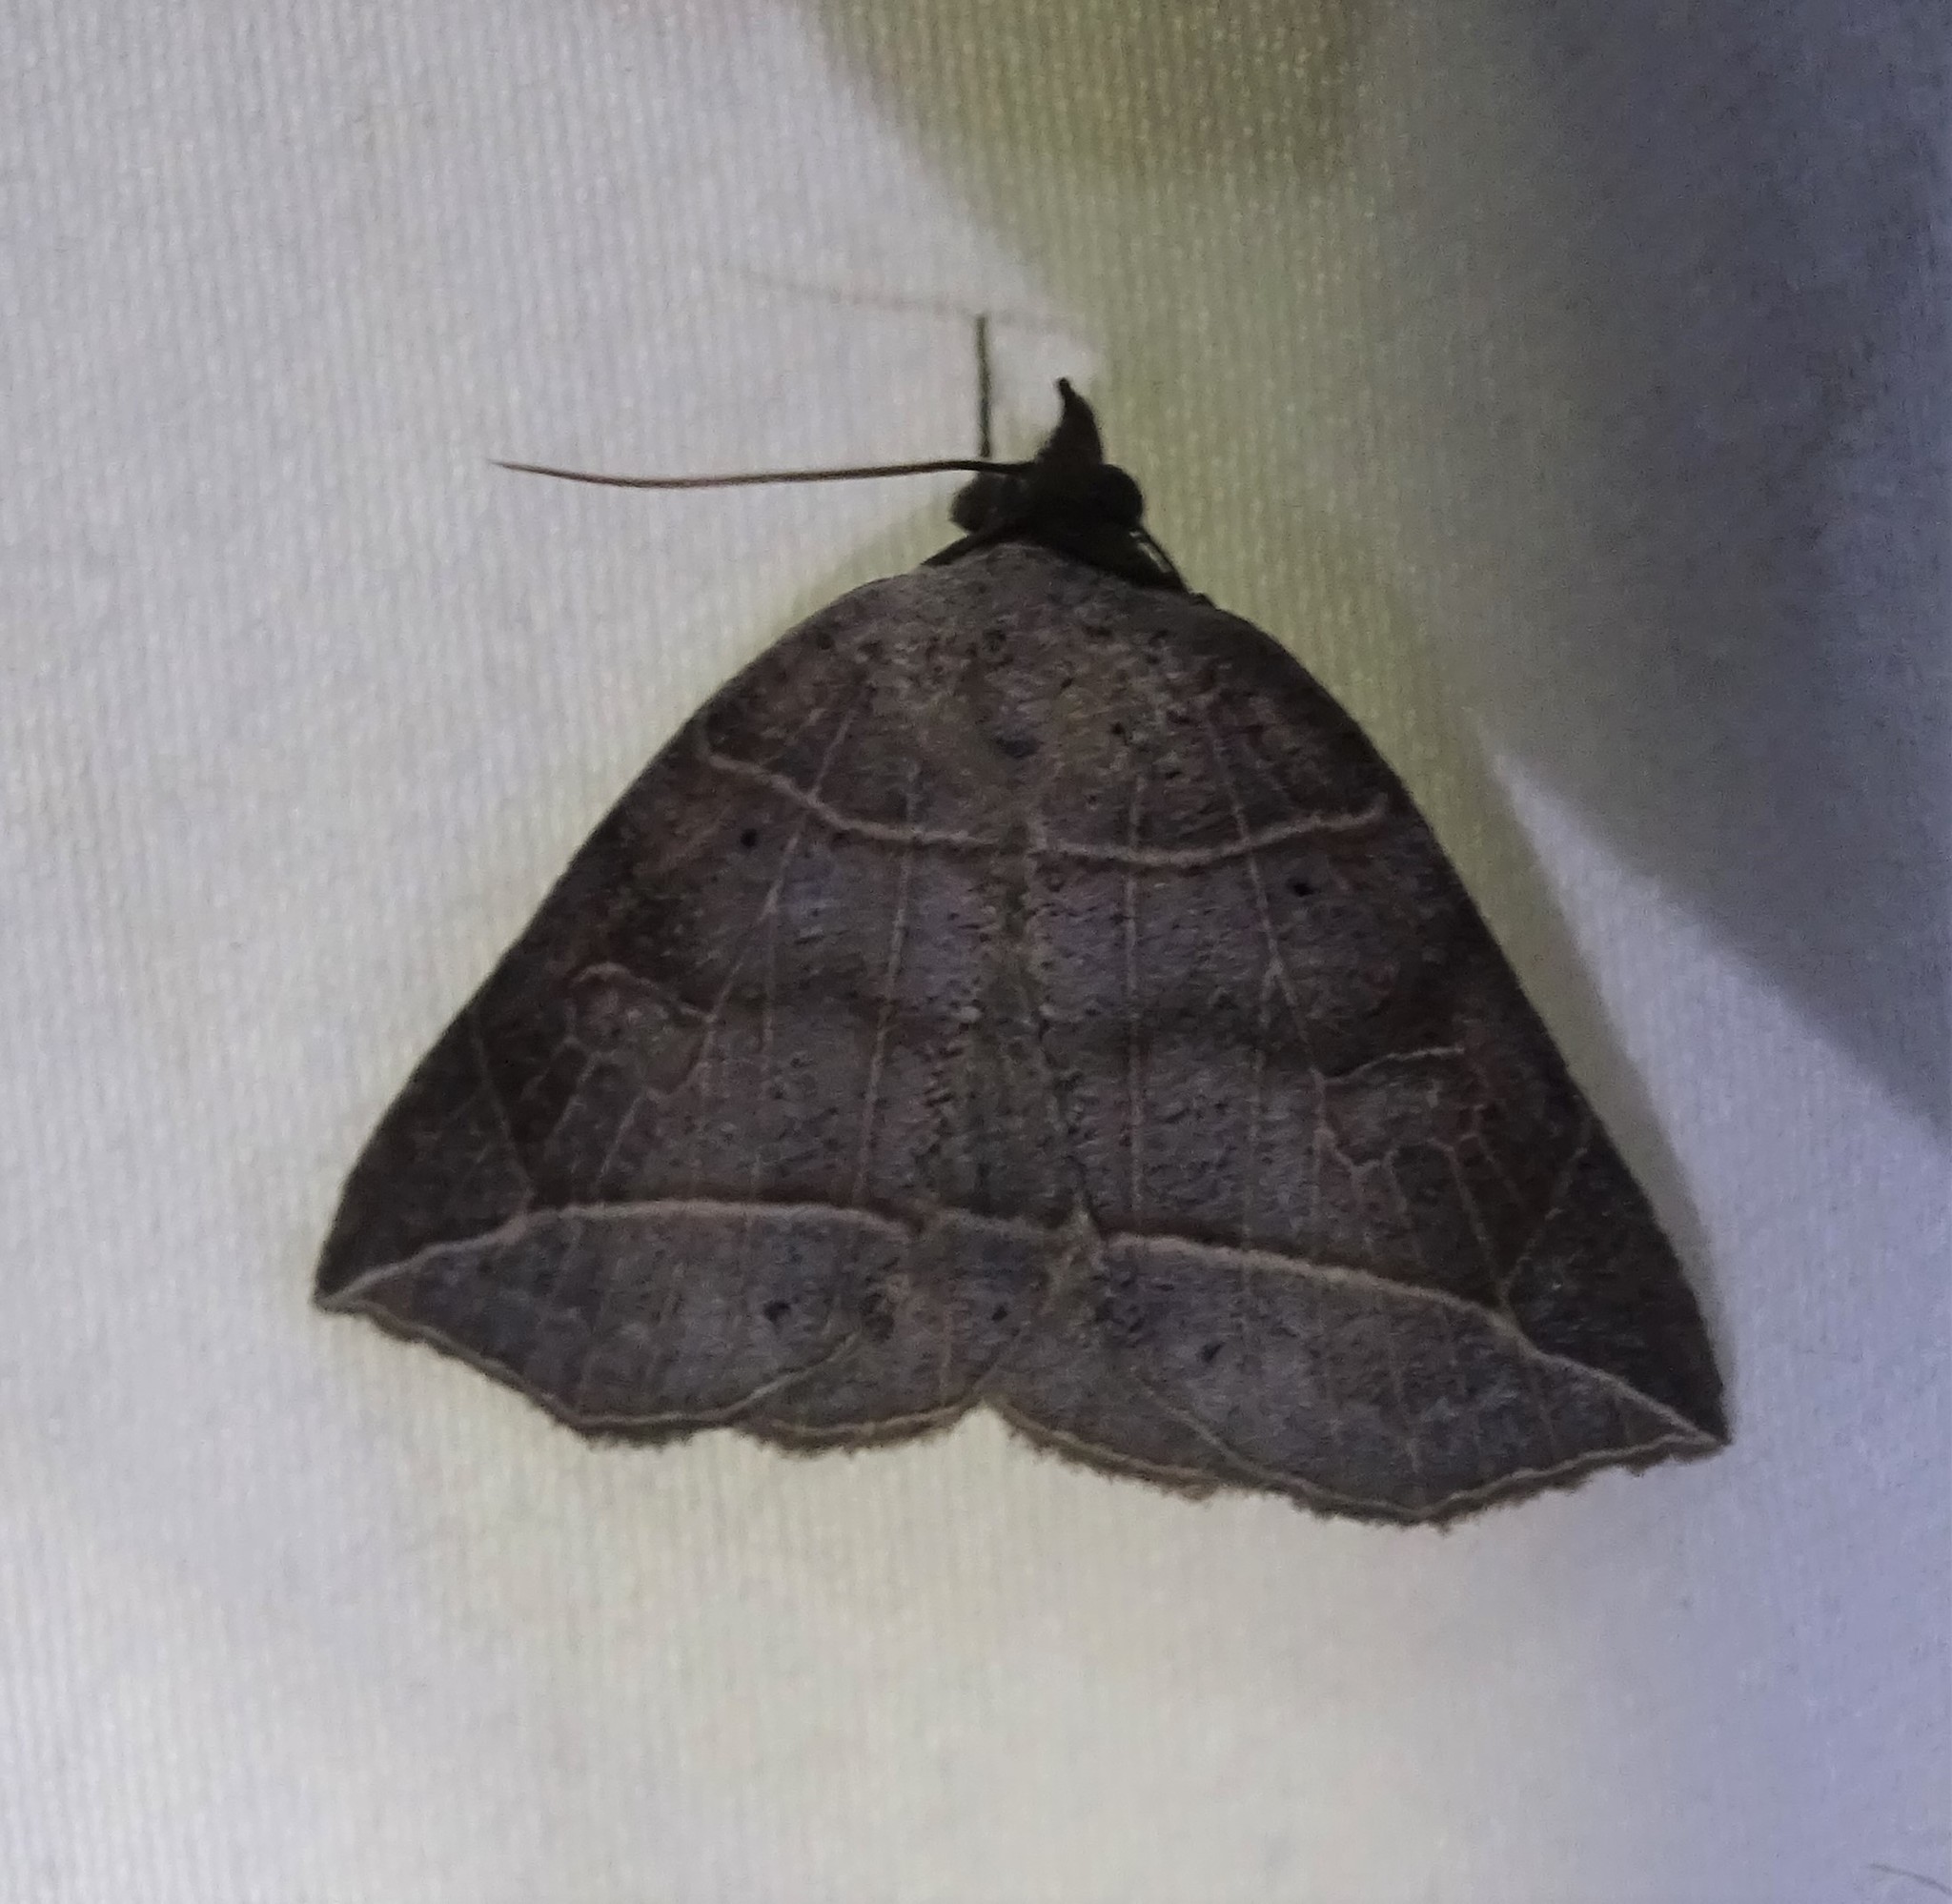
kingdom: Animalia
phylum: Arthropoda
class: Insecta
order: Lepidoptera
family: Erebidae
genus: Isogona
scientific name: Isogona tenuis
